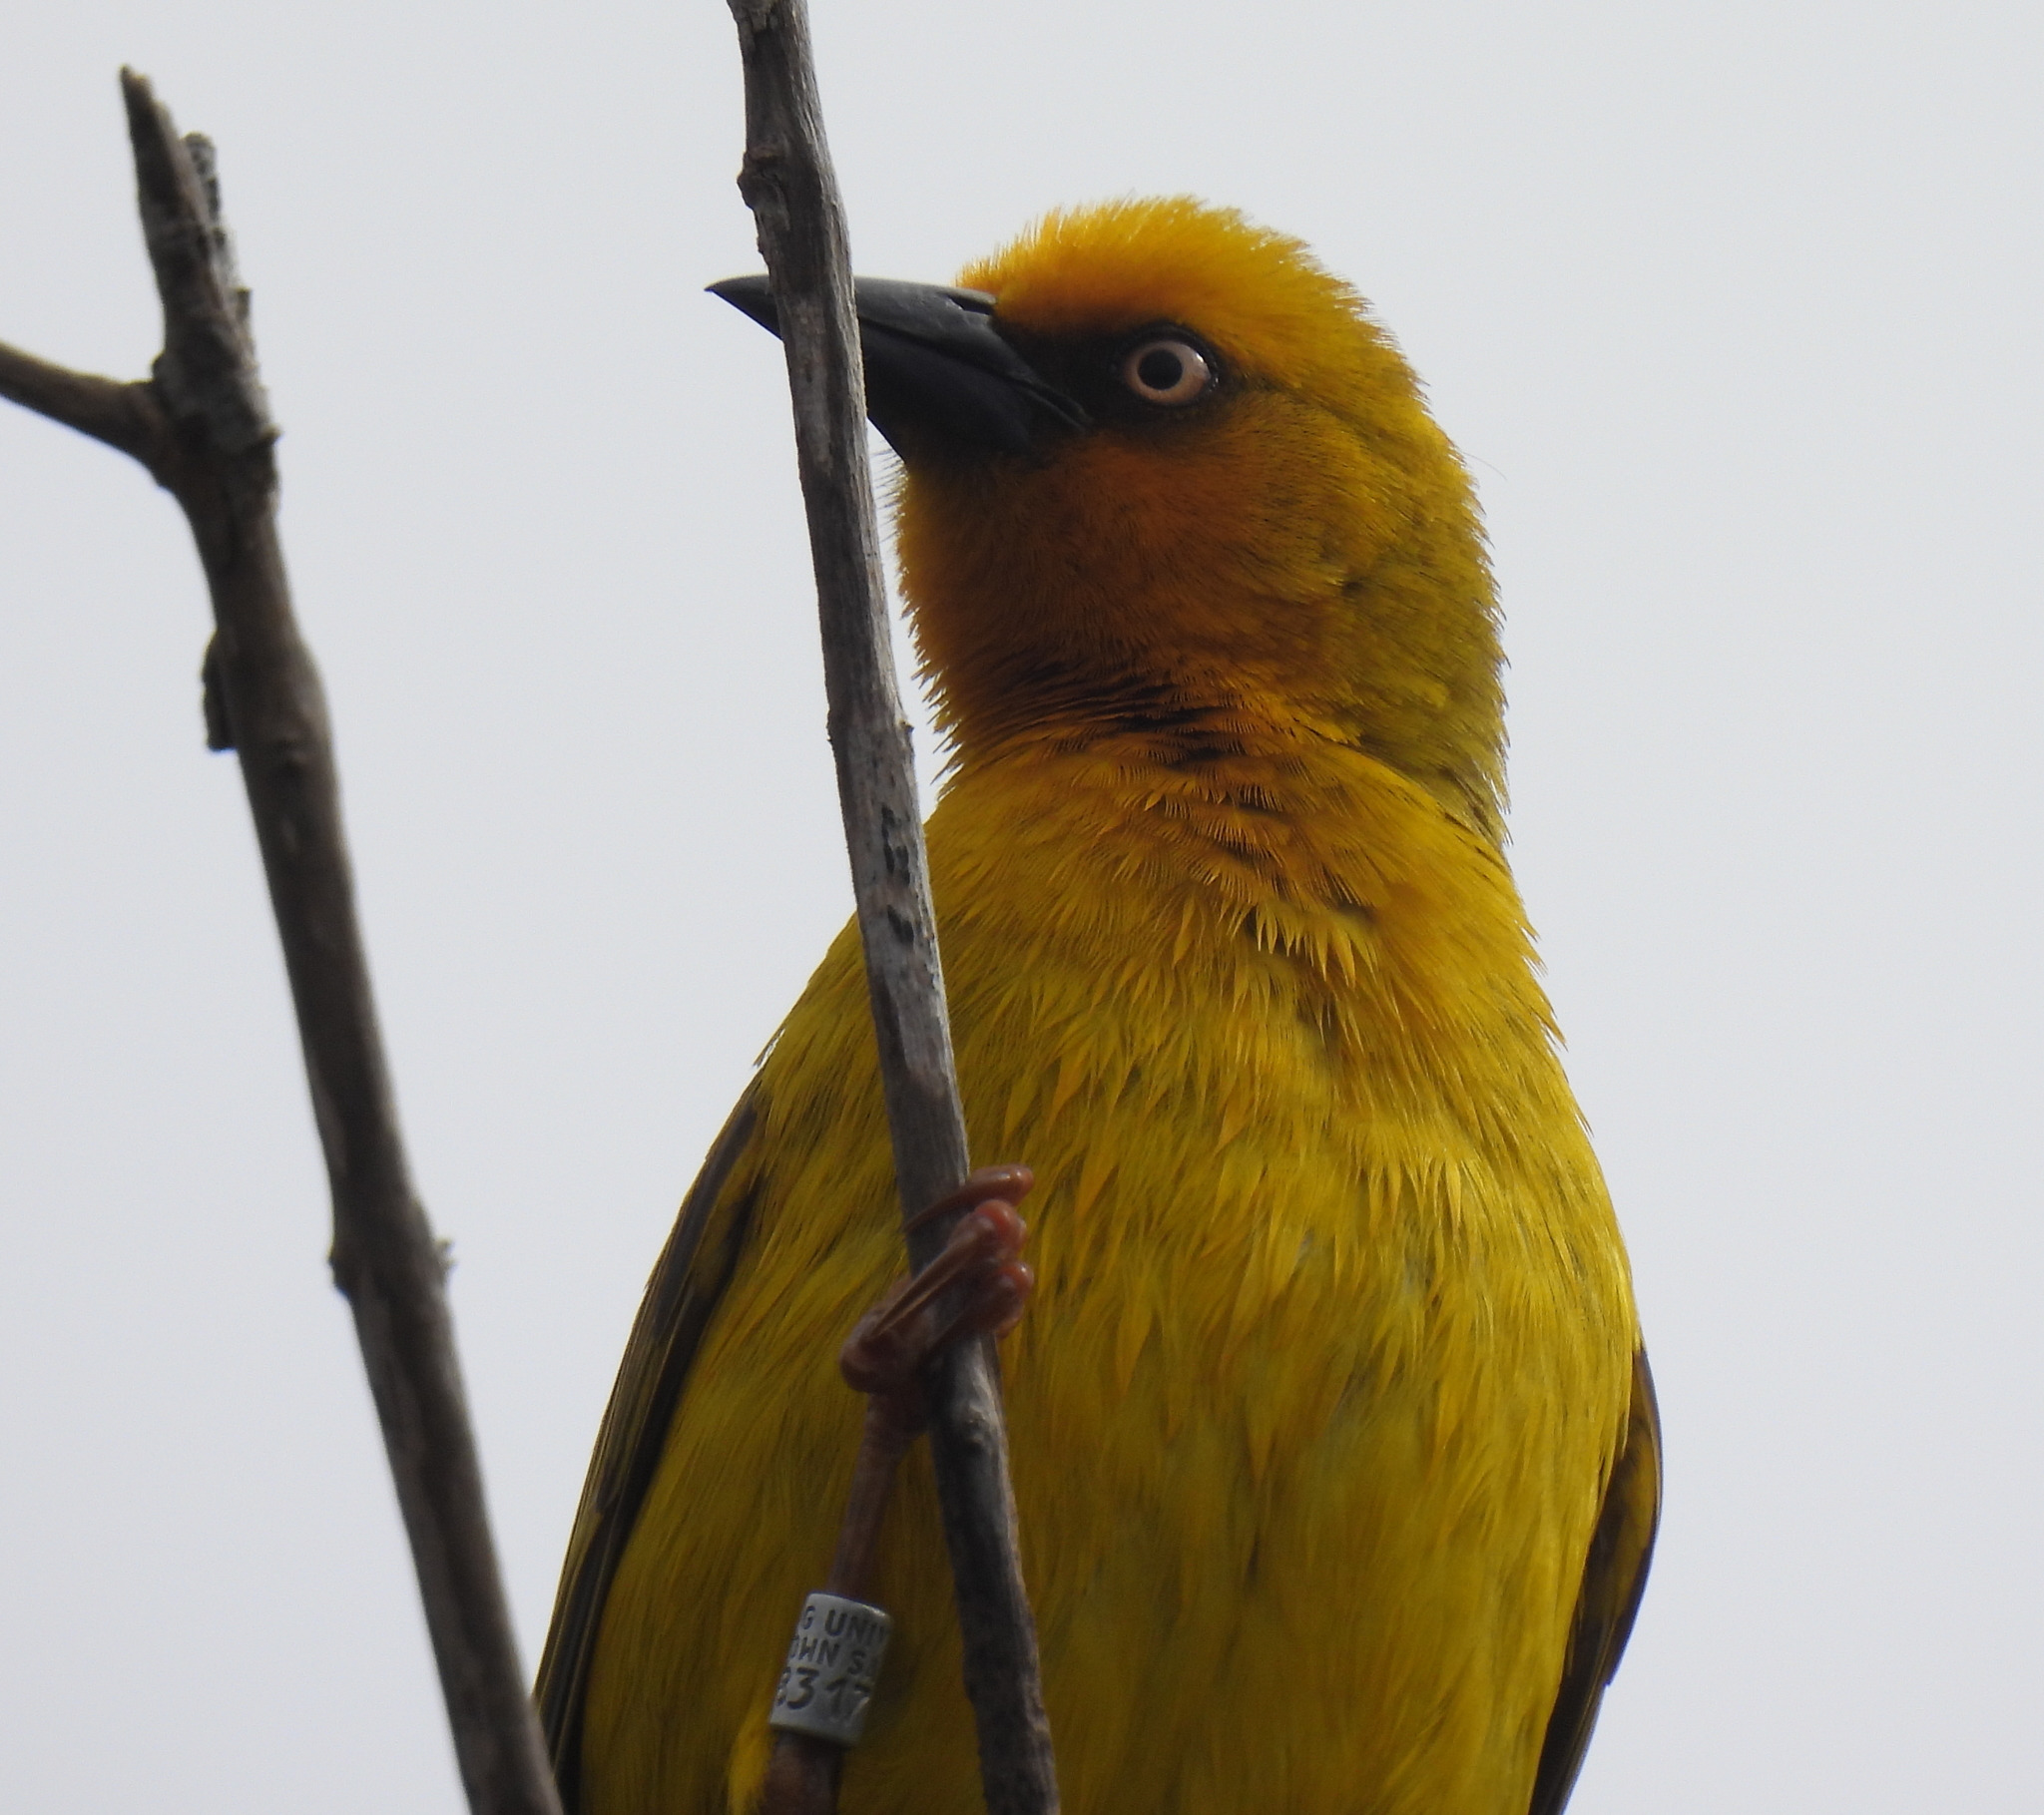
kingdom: Animalia
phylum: Chordata
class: Aves
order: Passeriformes
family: Ploceidae
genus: Ploceus
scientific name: Ploceus capensis
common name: Cape weaver
